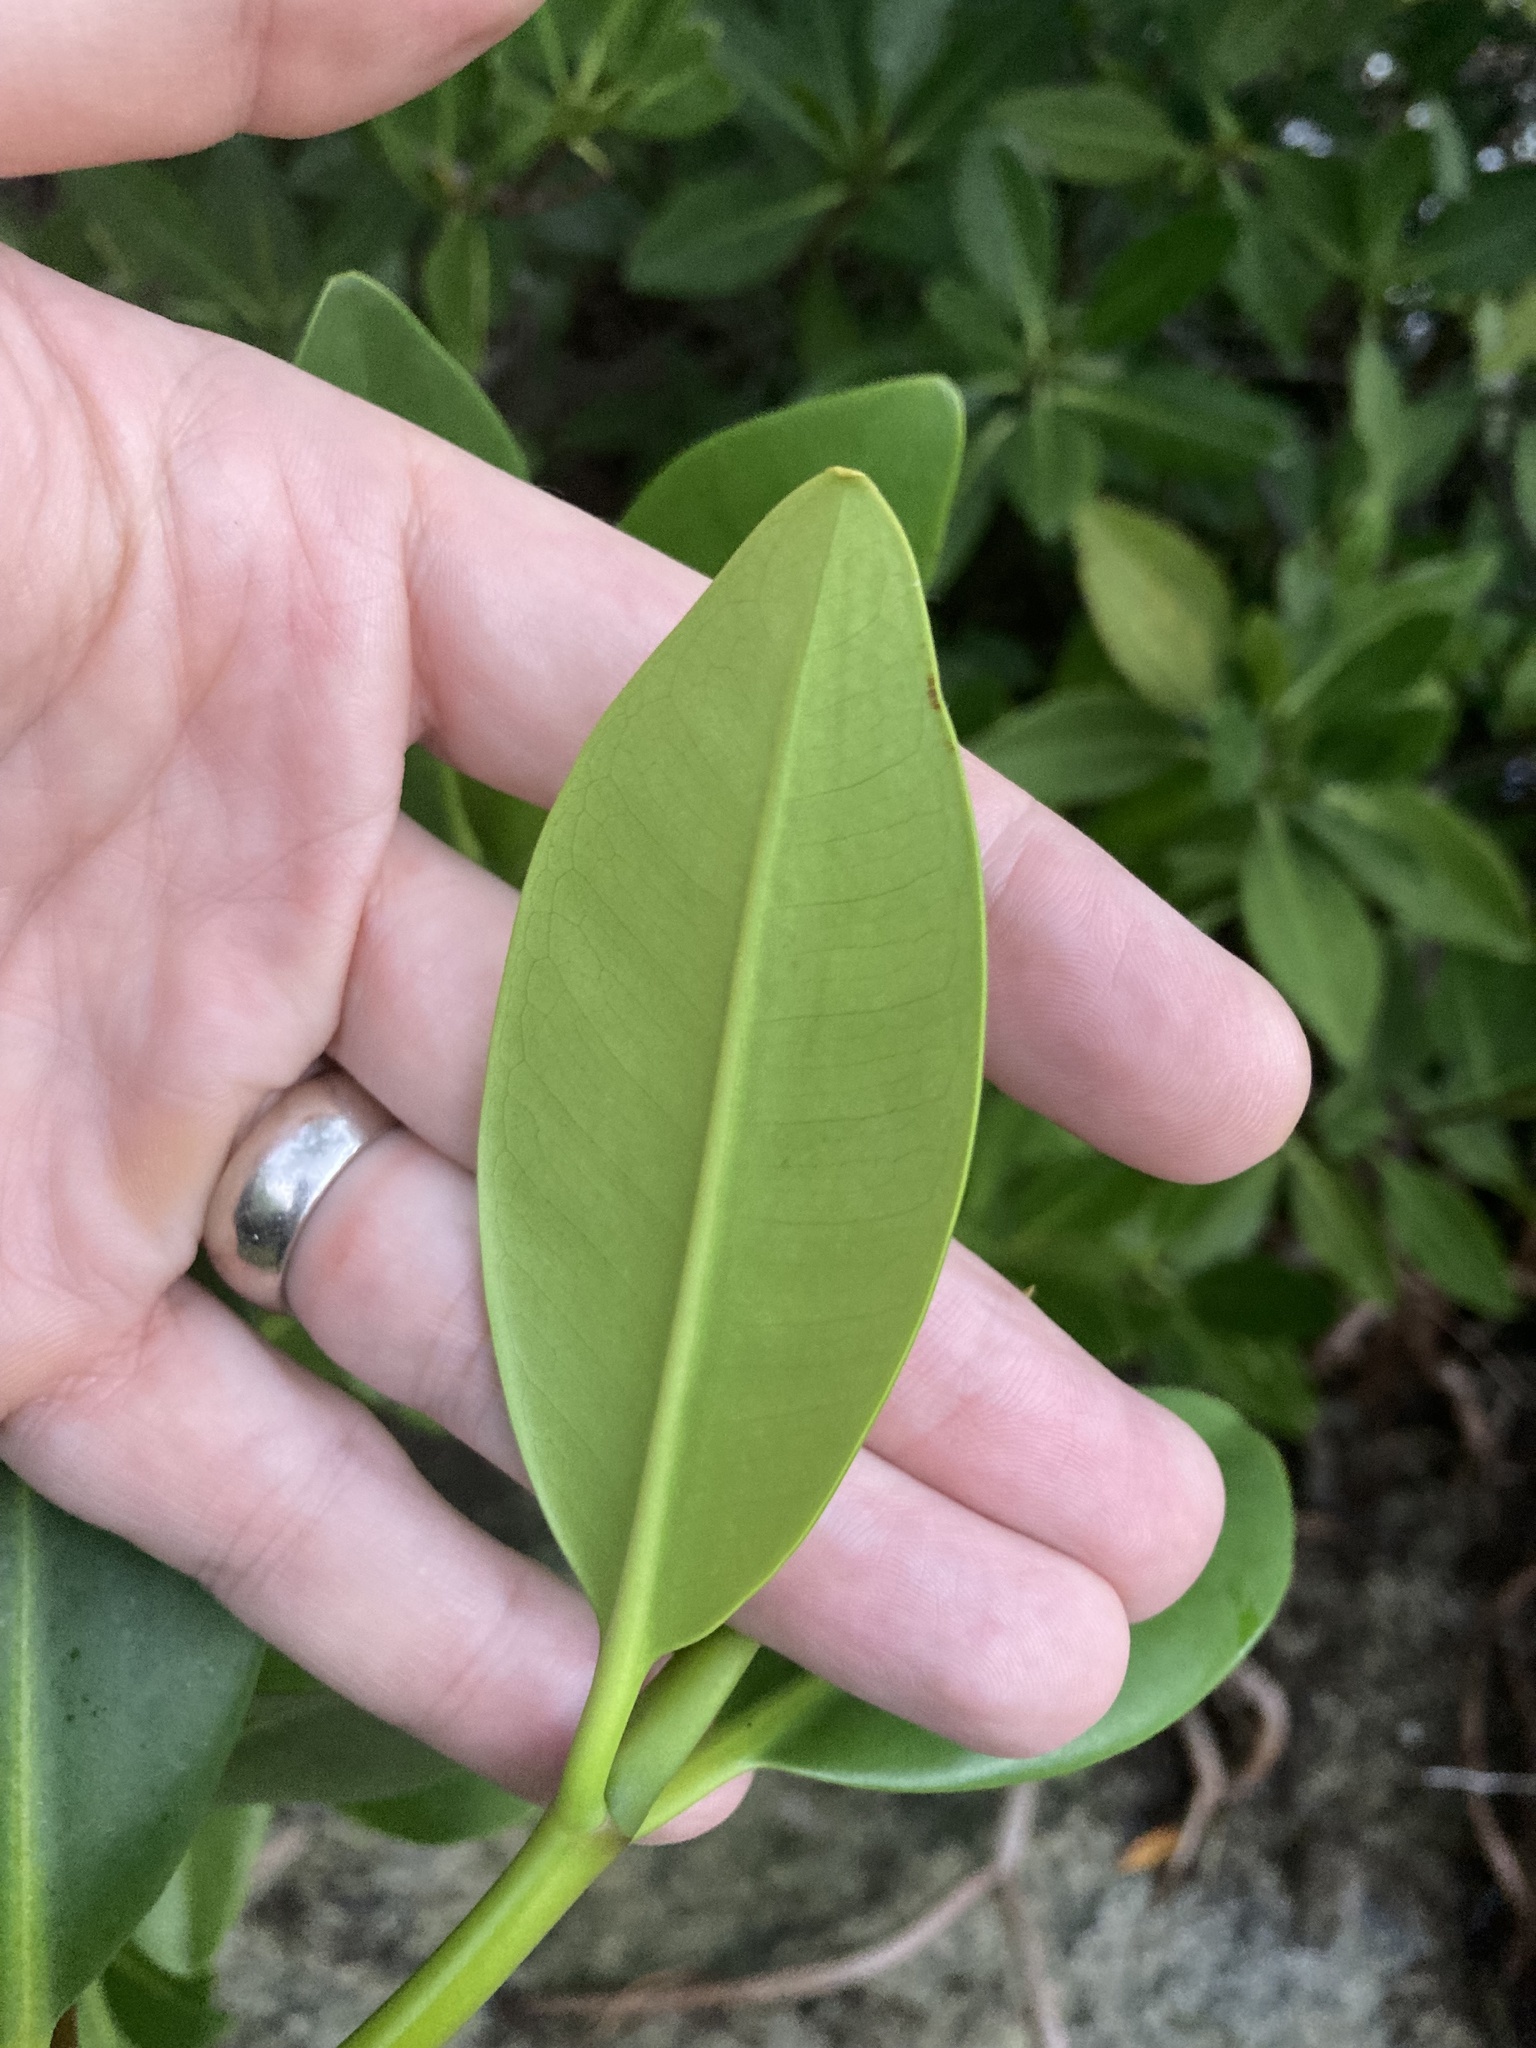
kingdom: Plantae
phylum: Tracheophyta
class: Magnoliopsida
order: Malpighiales
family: Rhizophoraceae
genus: Rhizophora
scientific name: Rhizophora mangle
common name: Red mangrove
